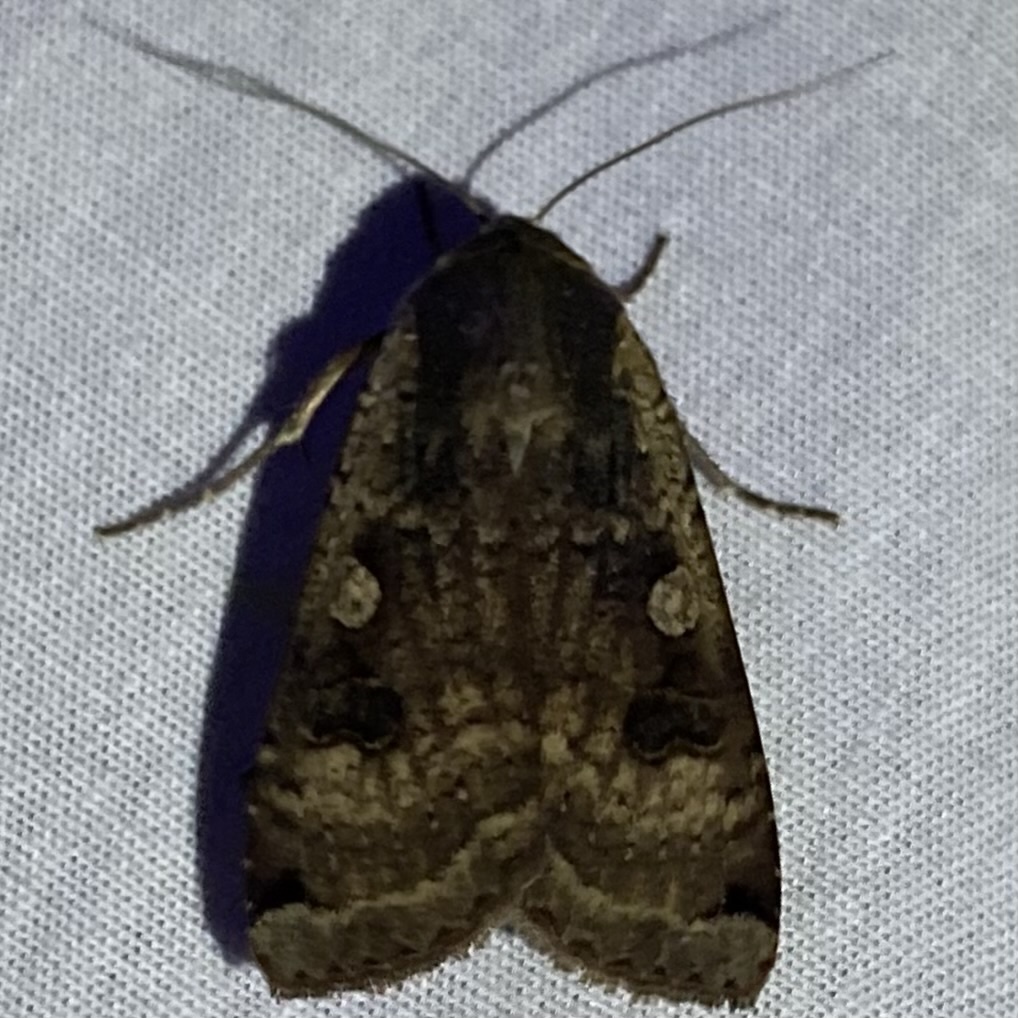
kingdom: Animalia
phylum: Arthropoda
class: Insecta
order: Lepidoptera
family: Noctuidae
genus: Noctua
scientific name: Noctua pronuba
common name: Large yellow underwing
